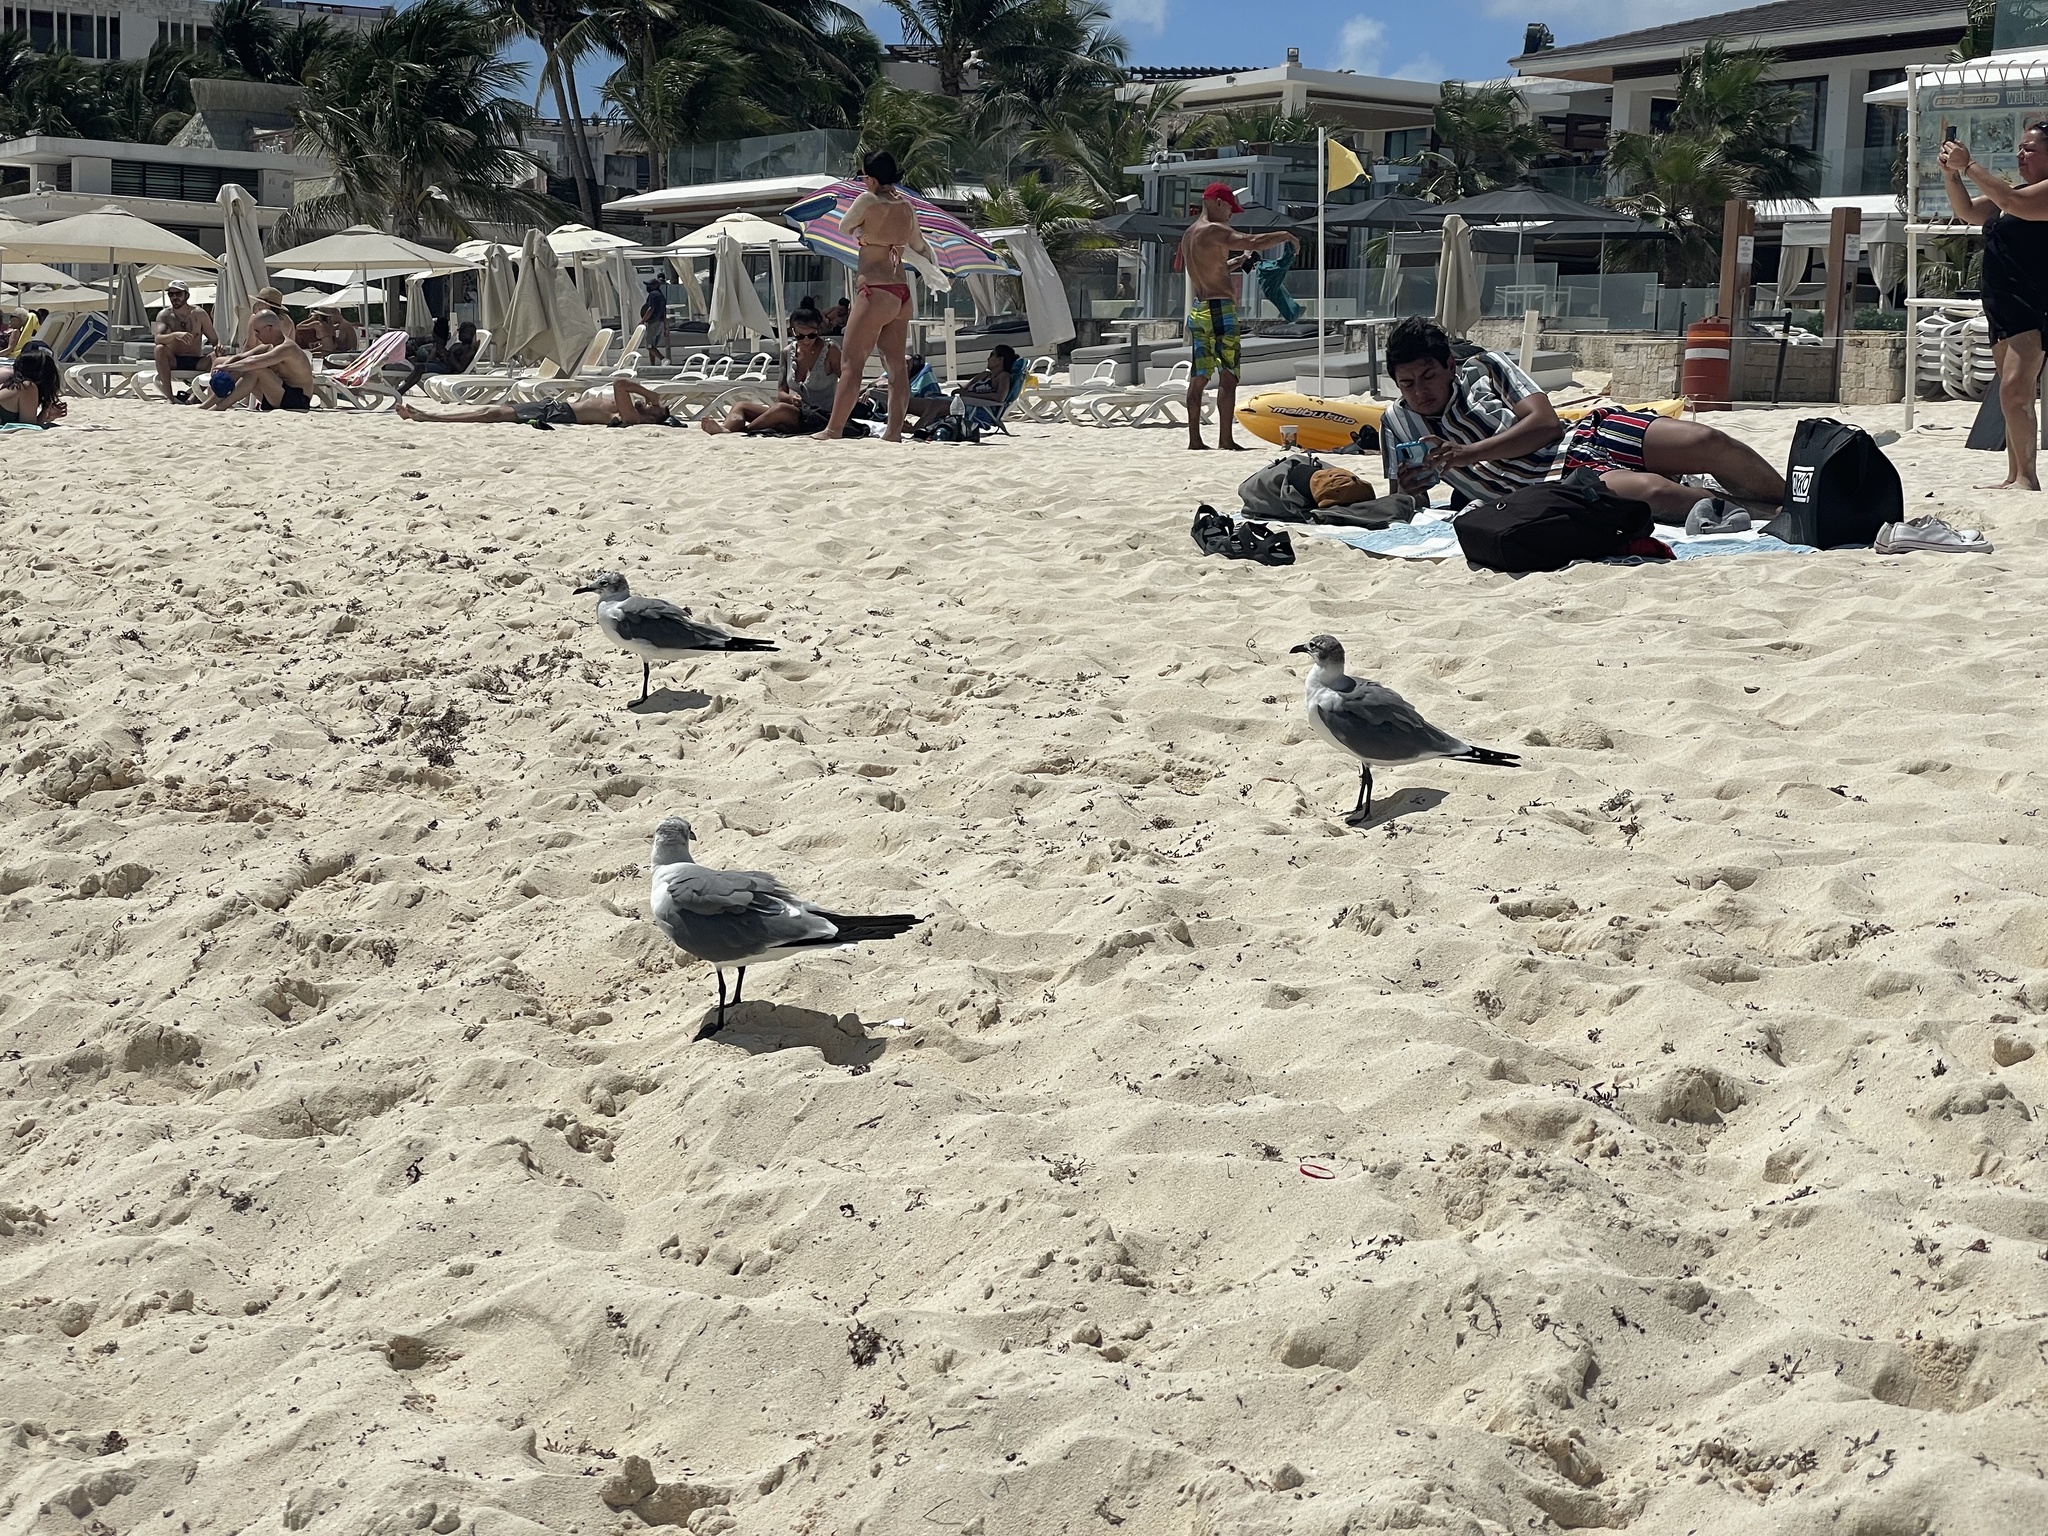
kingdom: Animalia
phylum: Chordata
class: Aves
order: Charadriiformes
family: Laridae
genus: Leucophaeus
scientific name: Leucophaeus atricilla
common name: Laughing gull
